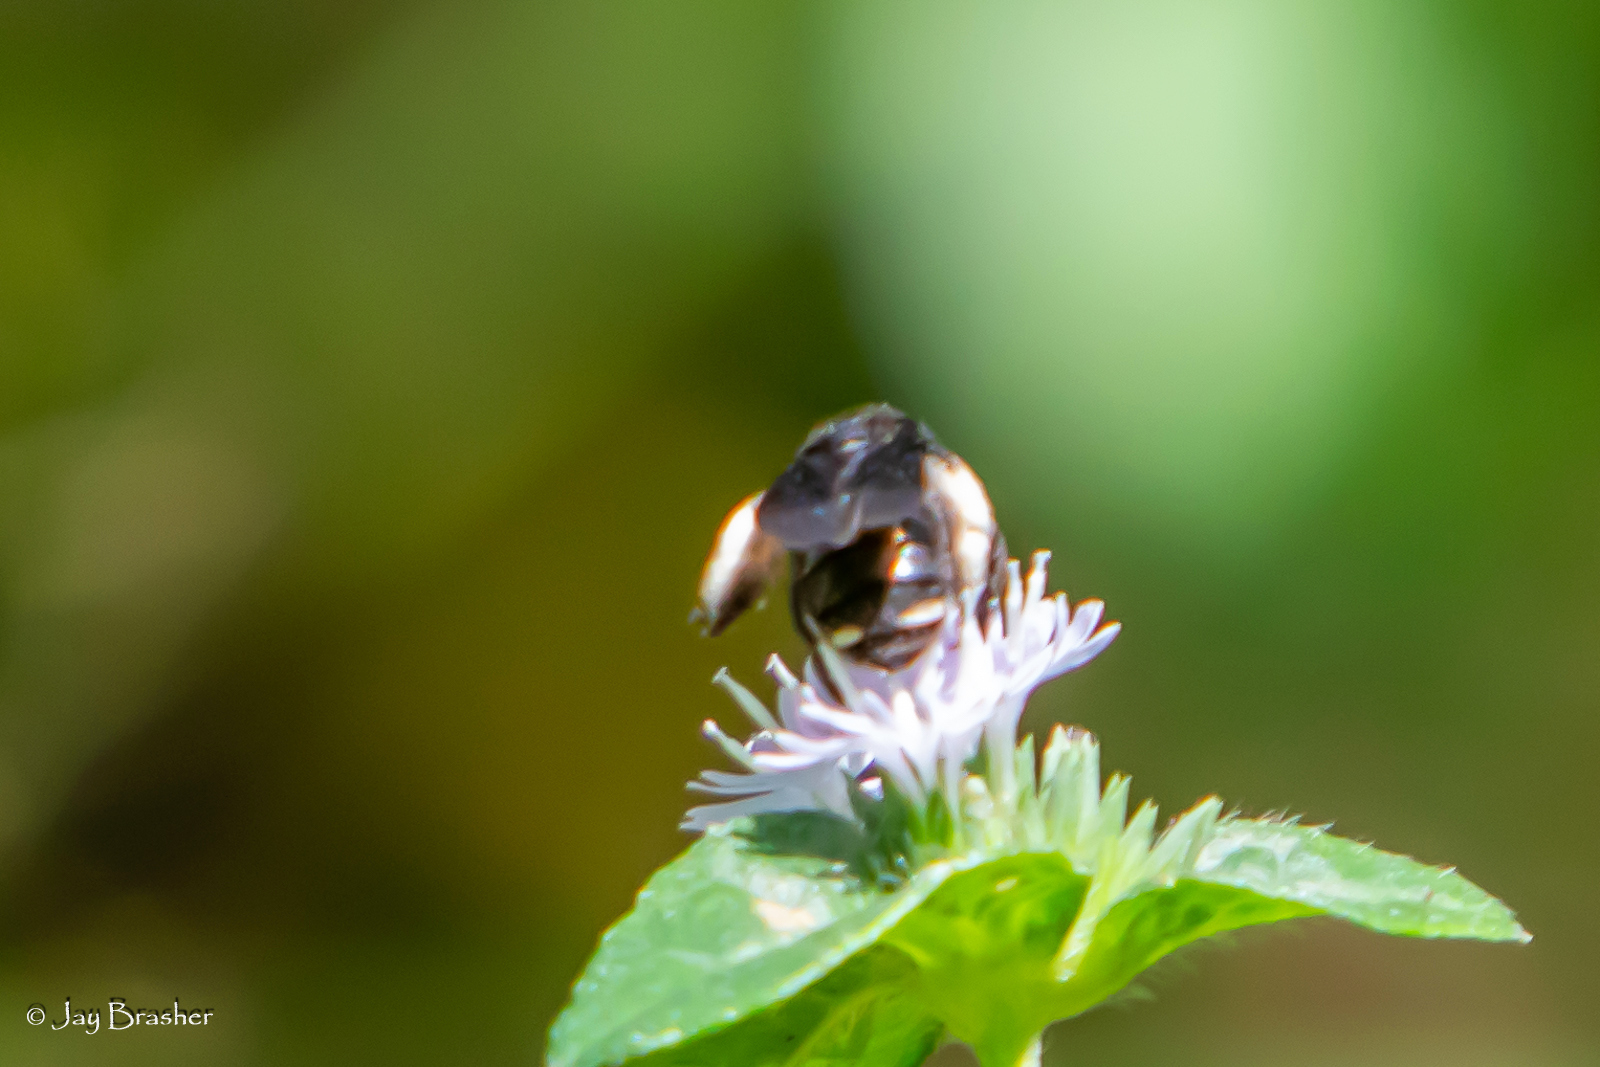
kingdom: Animalia
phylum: Arthropoda
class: Insecta
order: Hymenoptera
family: Apidae
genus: Melissodes
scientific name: Melissodes bimaculatus
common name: Two-spotted long-horned bee
